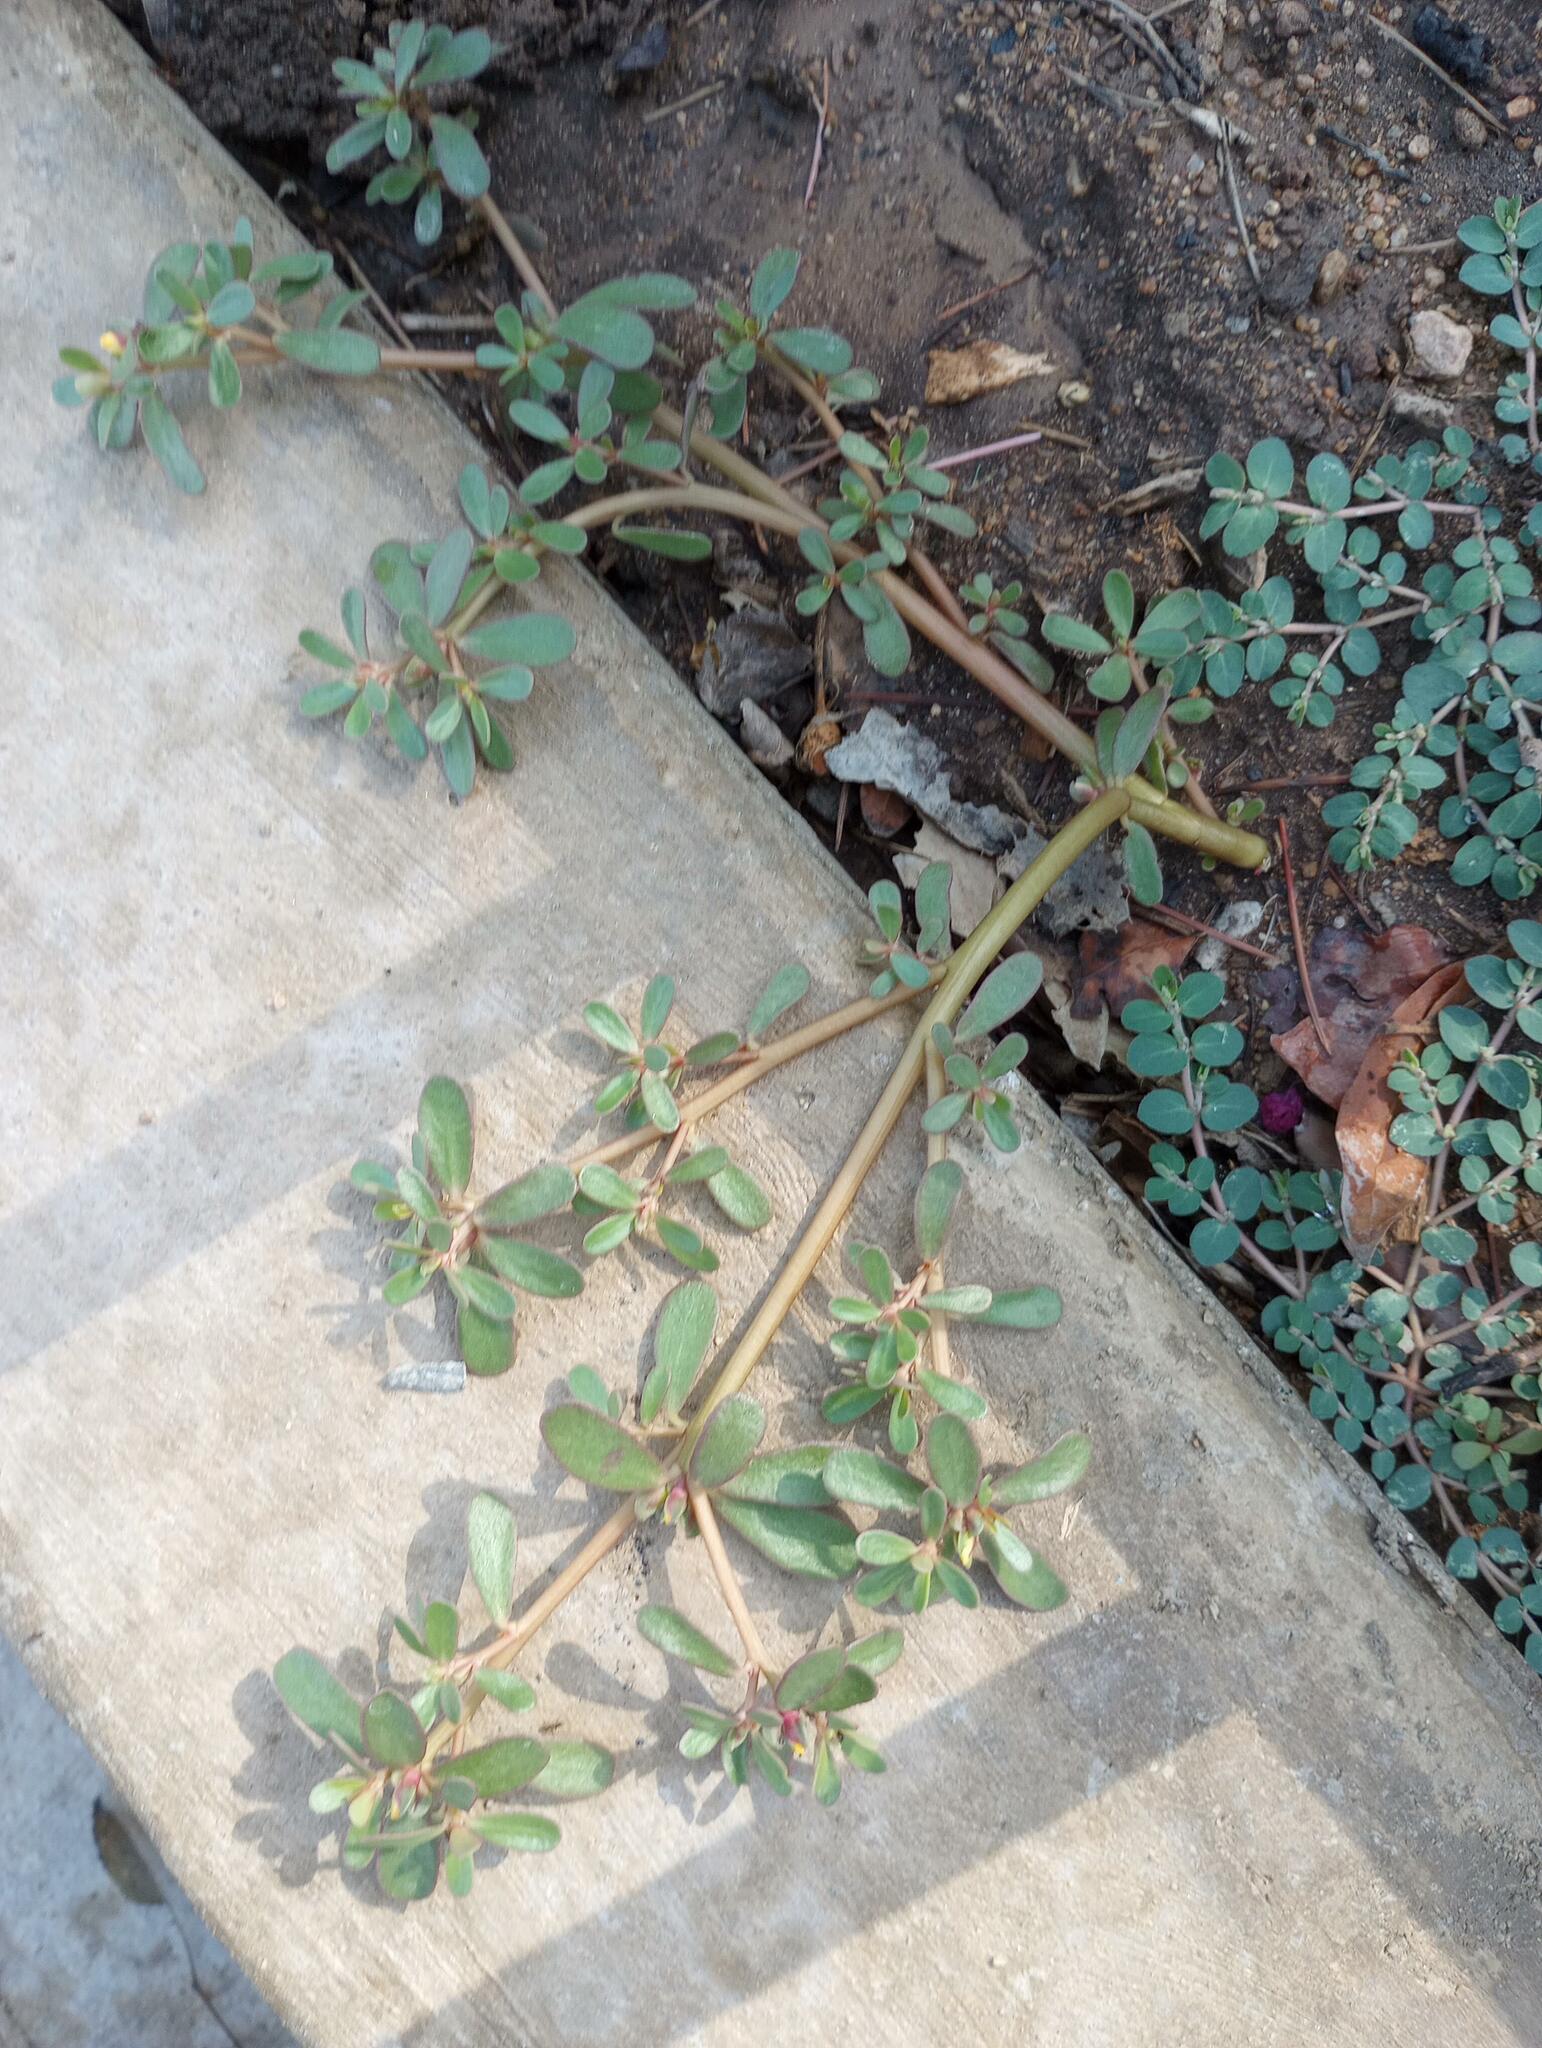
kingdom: Plantae
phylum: Tracheophyta
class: Magnoliopsida
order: Caryophyllales
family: Portulacaceae
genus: Portulaca
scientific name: Portulaca oleracea
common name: Common purslane
